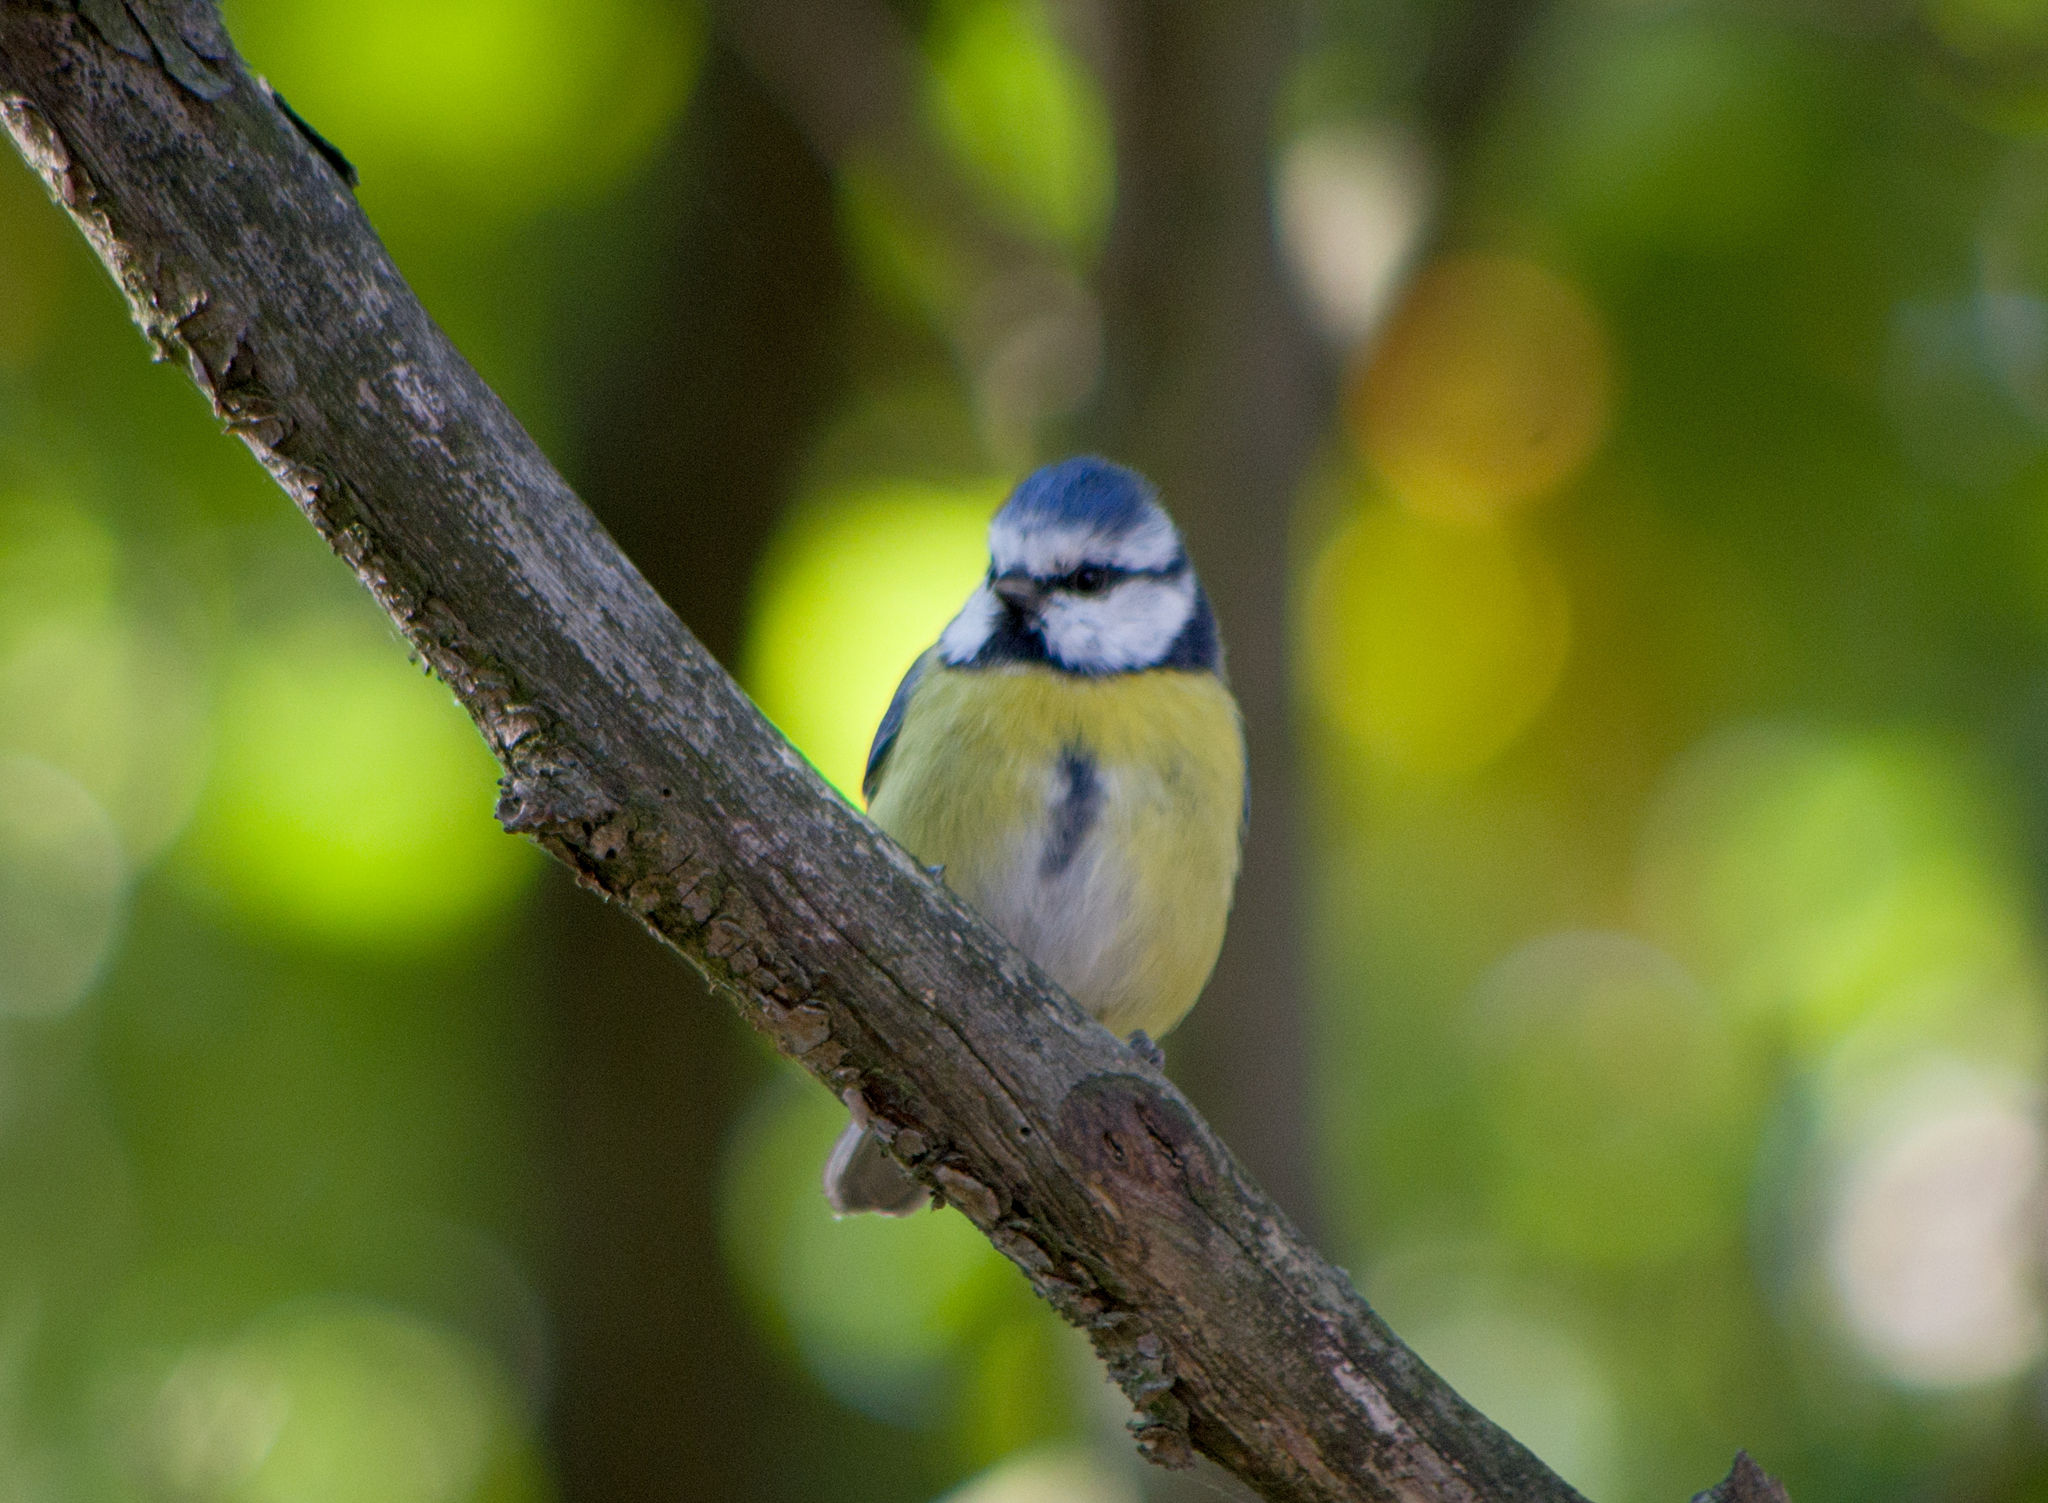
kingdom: Animalia
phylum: Chordata
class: Aves
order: Passeriformes
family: Paridae
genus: Cyanistes
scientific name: Cyanistes caeruleus
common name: Eurasian blue tit
